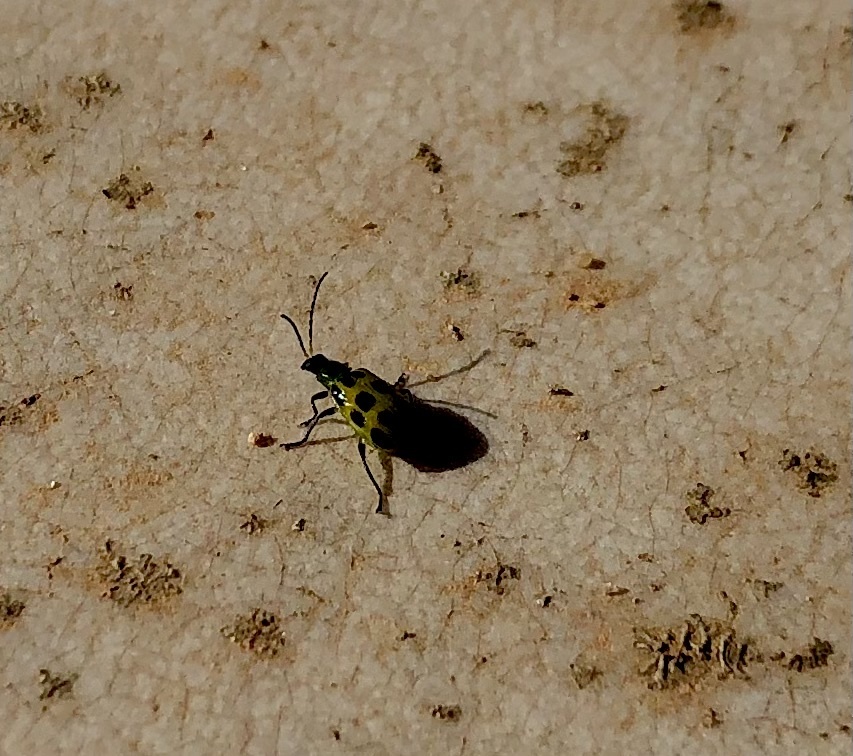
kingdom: Animalia
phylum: Arthropoda
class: Insecta
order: Coleoptera
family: Chrysomelidae
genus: Diabrotica
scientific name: Diabrotica undecimpunctata
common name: Spotted cucumber beetle
